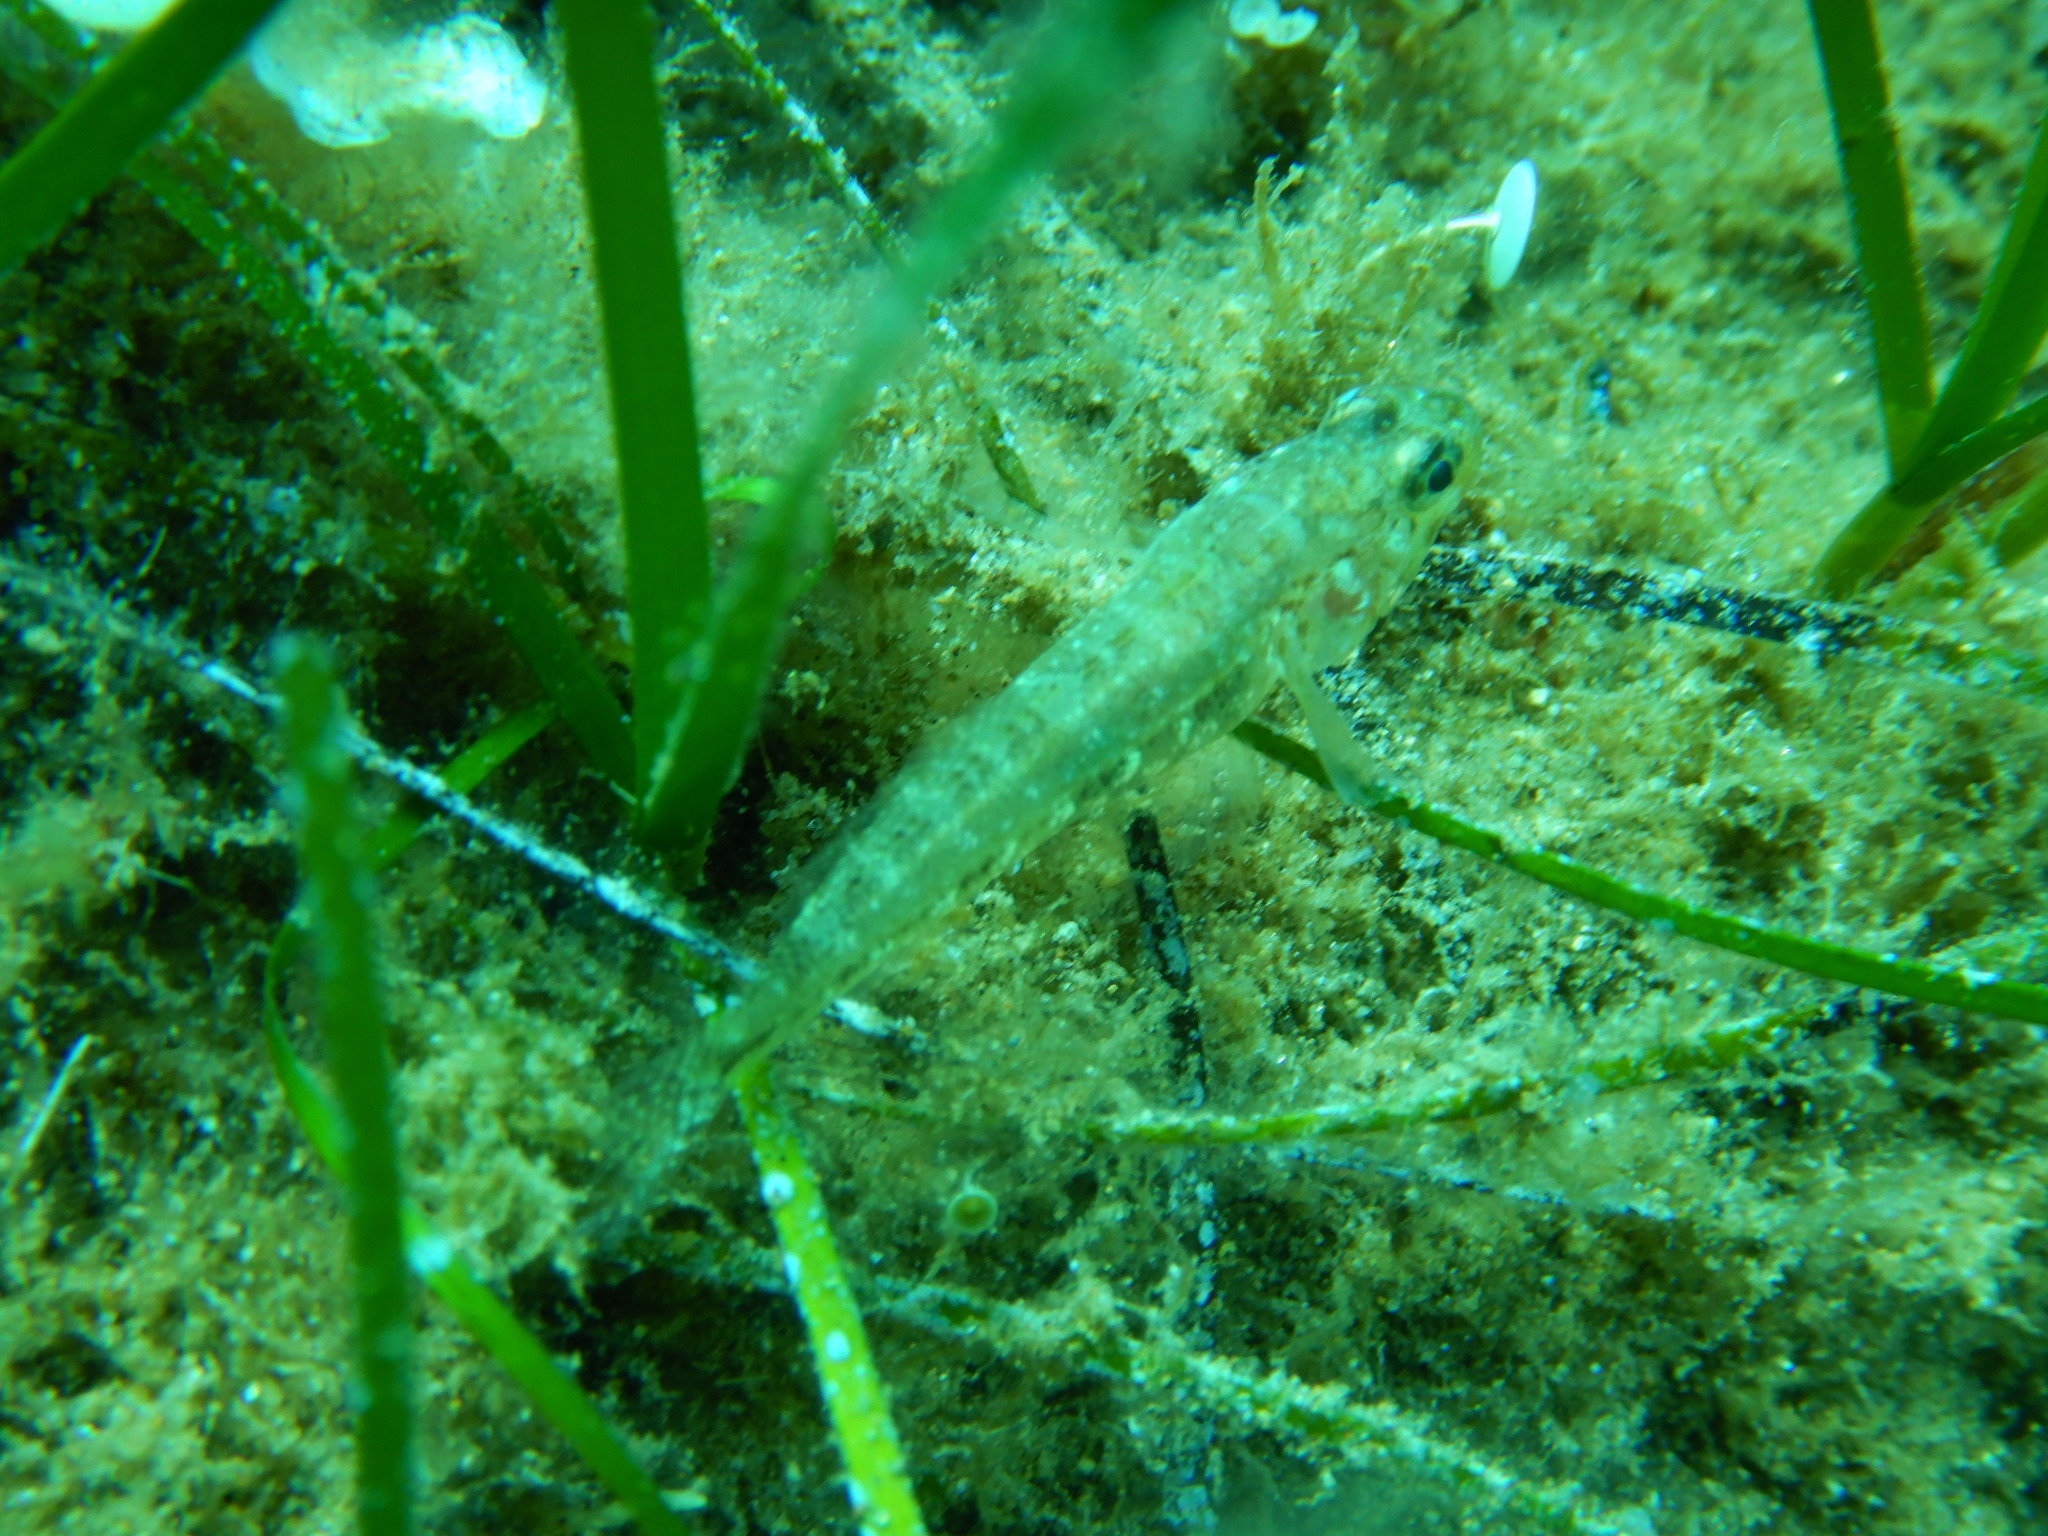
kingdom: Animalia
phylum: Chordata
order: Perciformes
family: Gobiidae
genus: Gobius
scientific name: Gobius cruentatus
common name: Red-mouthed goby
